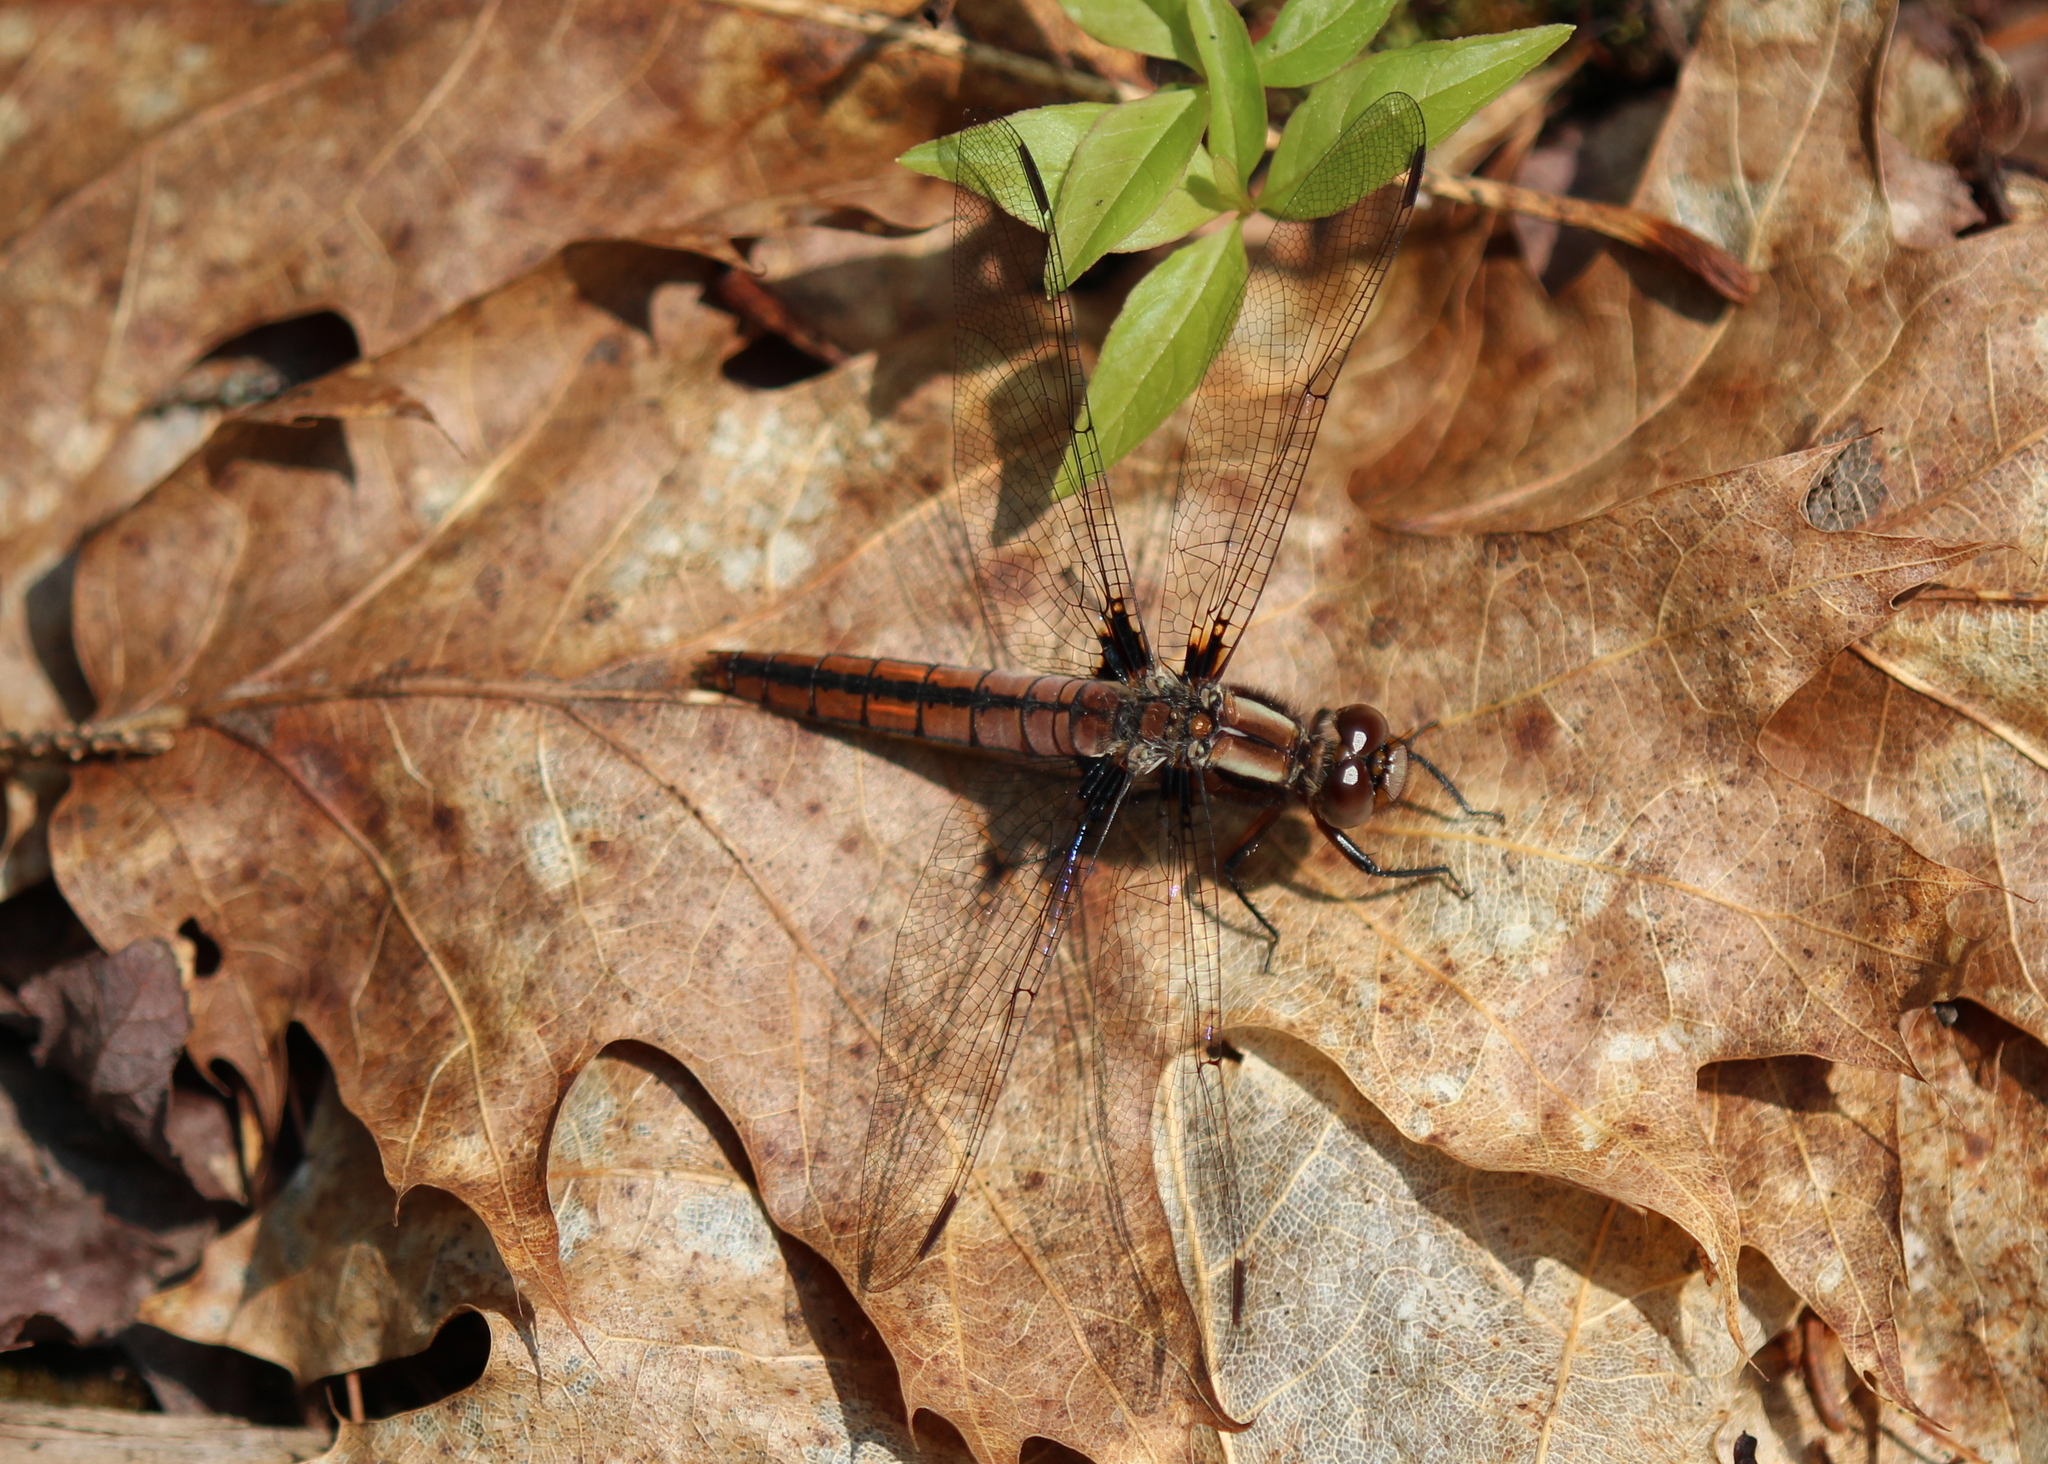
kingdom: Animalia
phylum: Arthropoda
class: Insecta
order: Odonata
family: Libellulidae
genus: Ladona
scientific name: Ladona julia
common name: Chalk-fronted corporal
